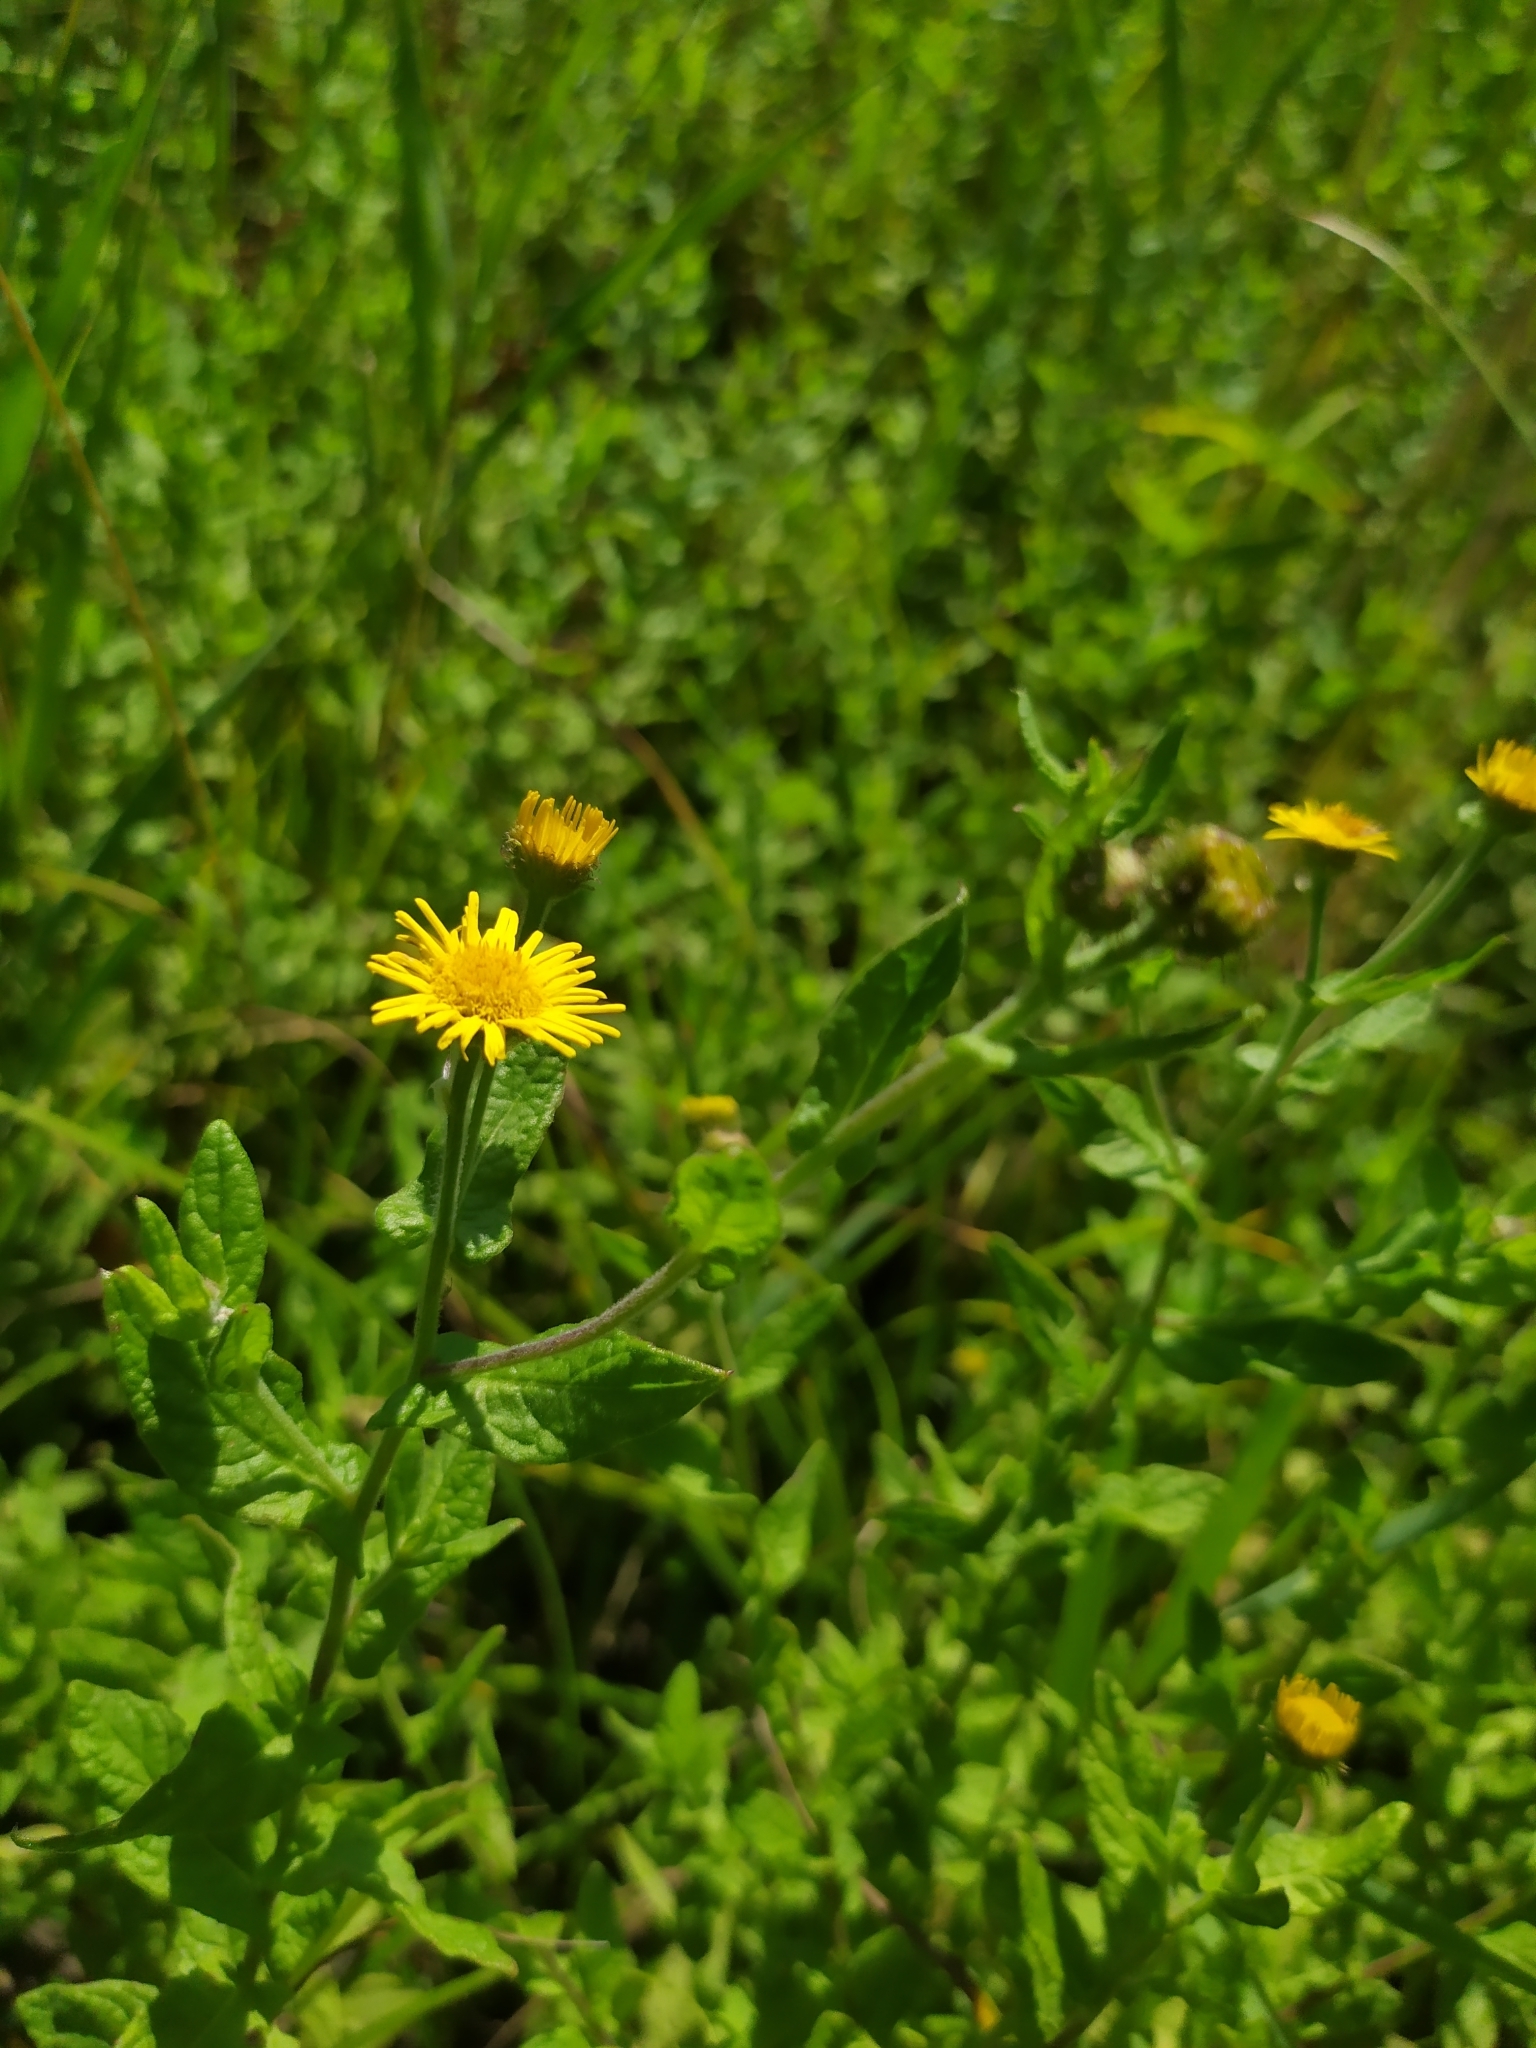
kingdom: Plantae
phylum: Tracheophyta
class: Magnoliopsida
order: Asterales
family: Asteraceae
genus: Pulicaria
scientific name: Pulicaria dysenterica
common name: Common fleabane
